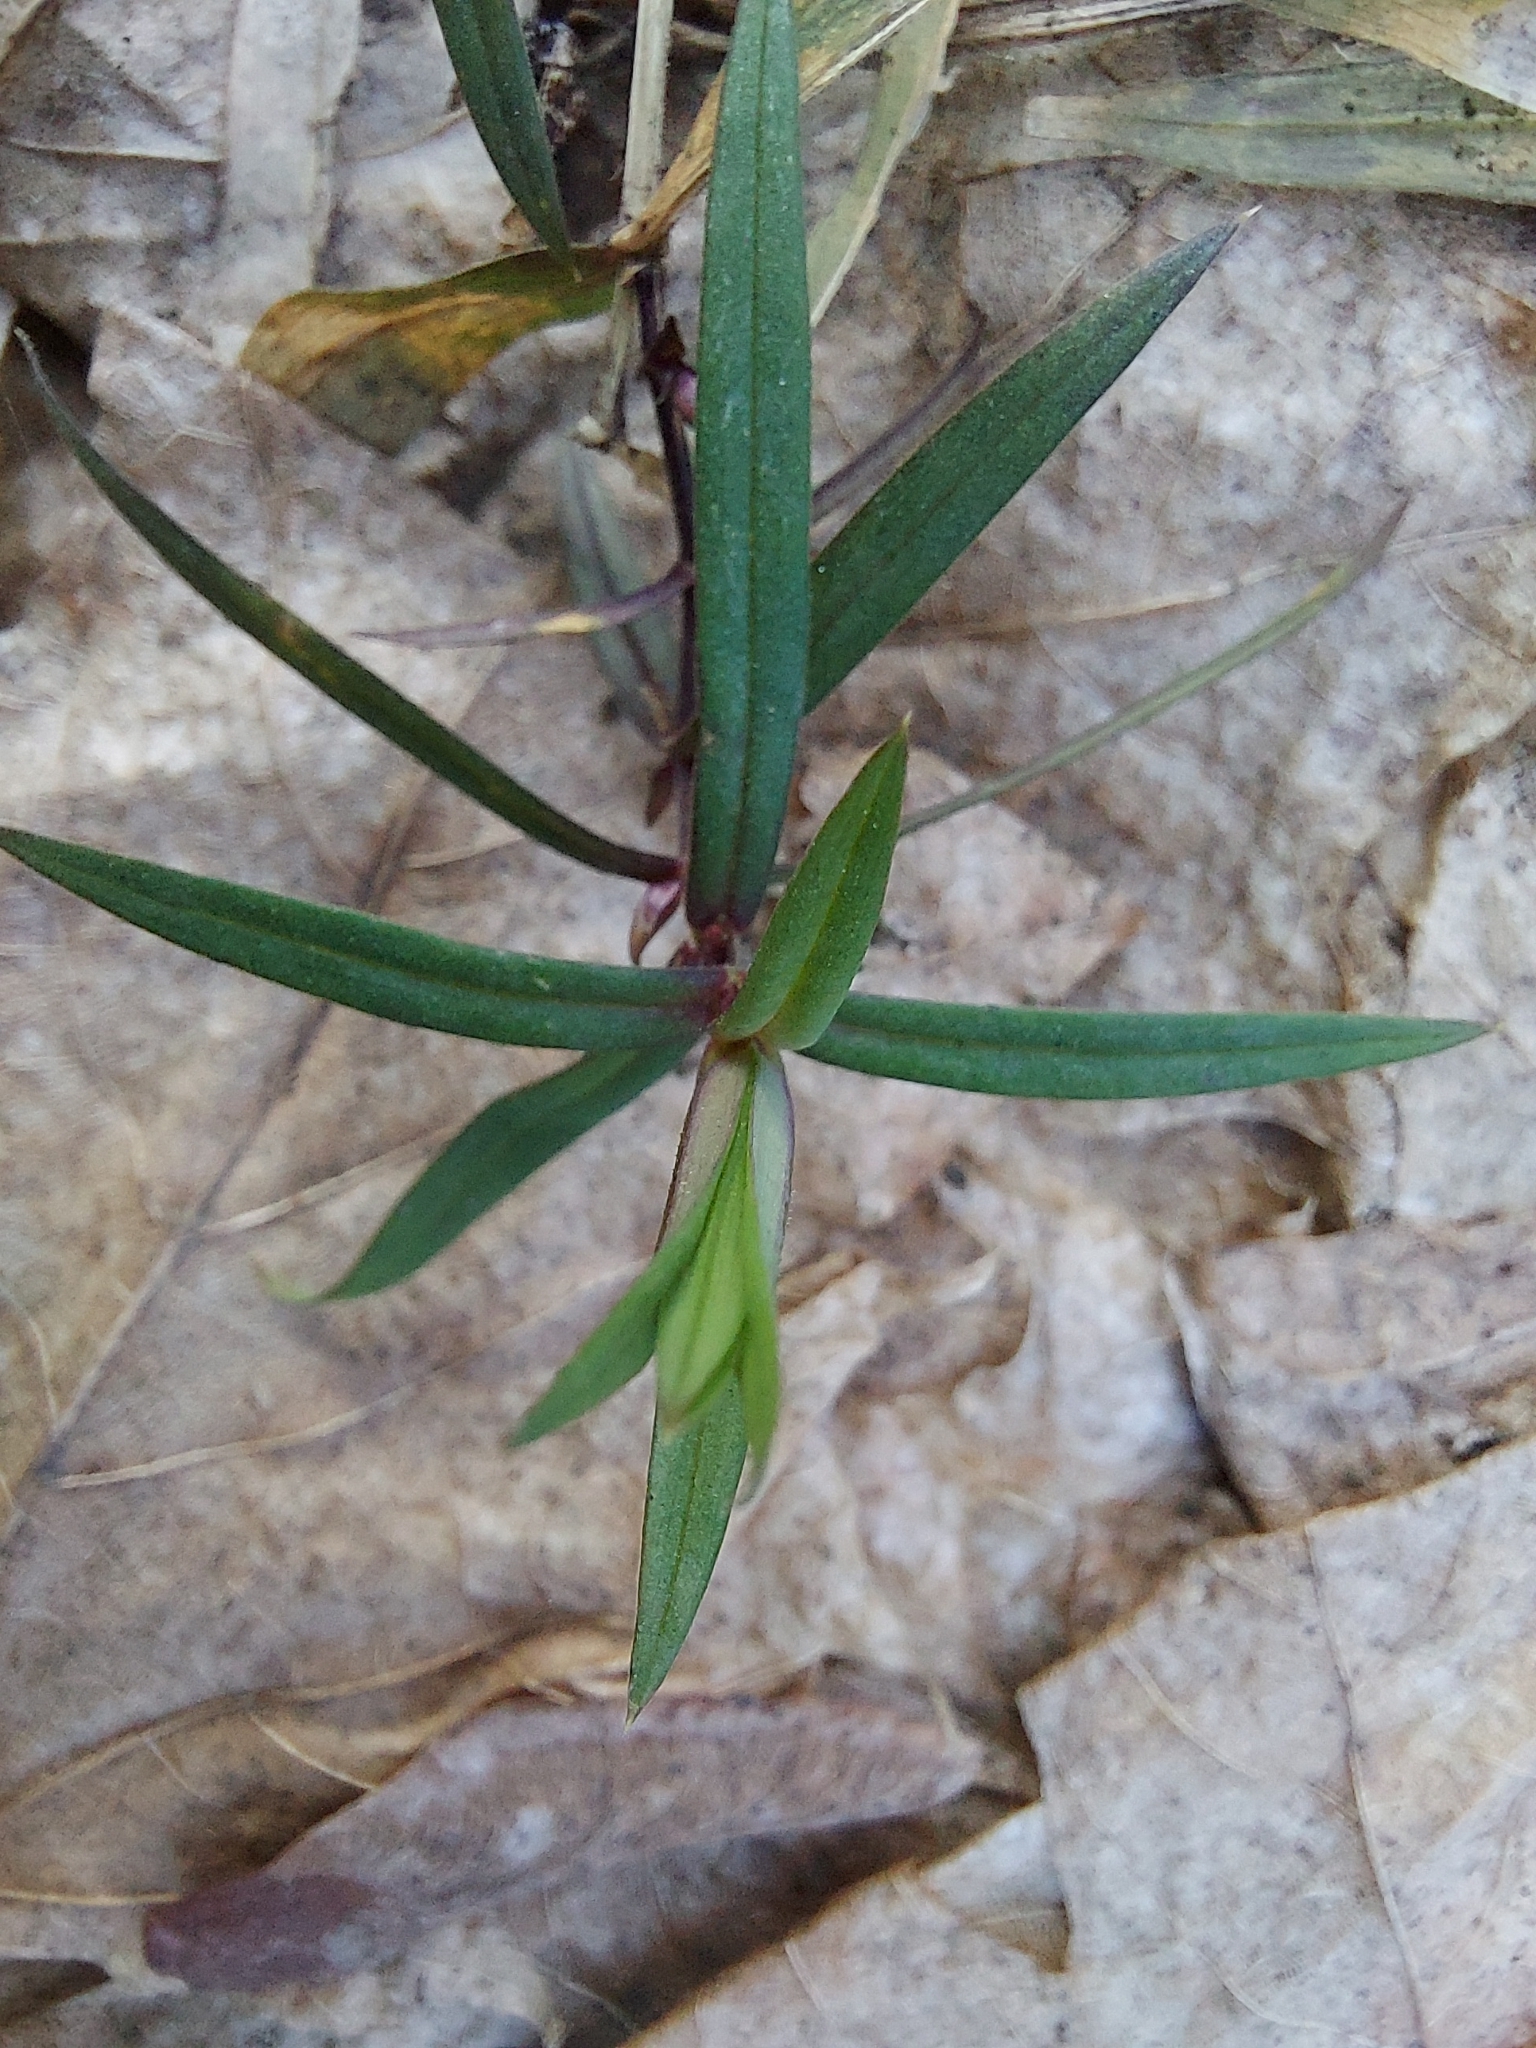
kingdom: Plantae
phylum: Tracheophyta
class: Magnoliopsida
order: Caryophyllales
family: Caryophyllaceae
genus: Rabelera
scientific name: Rabelera holostea
